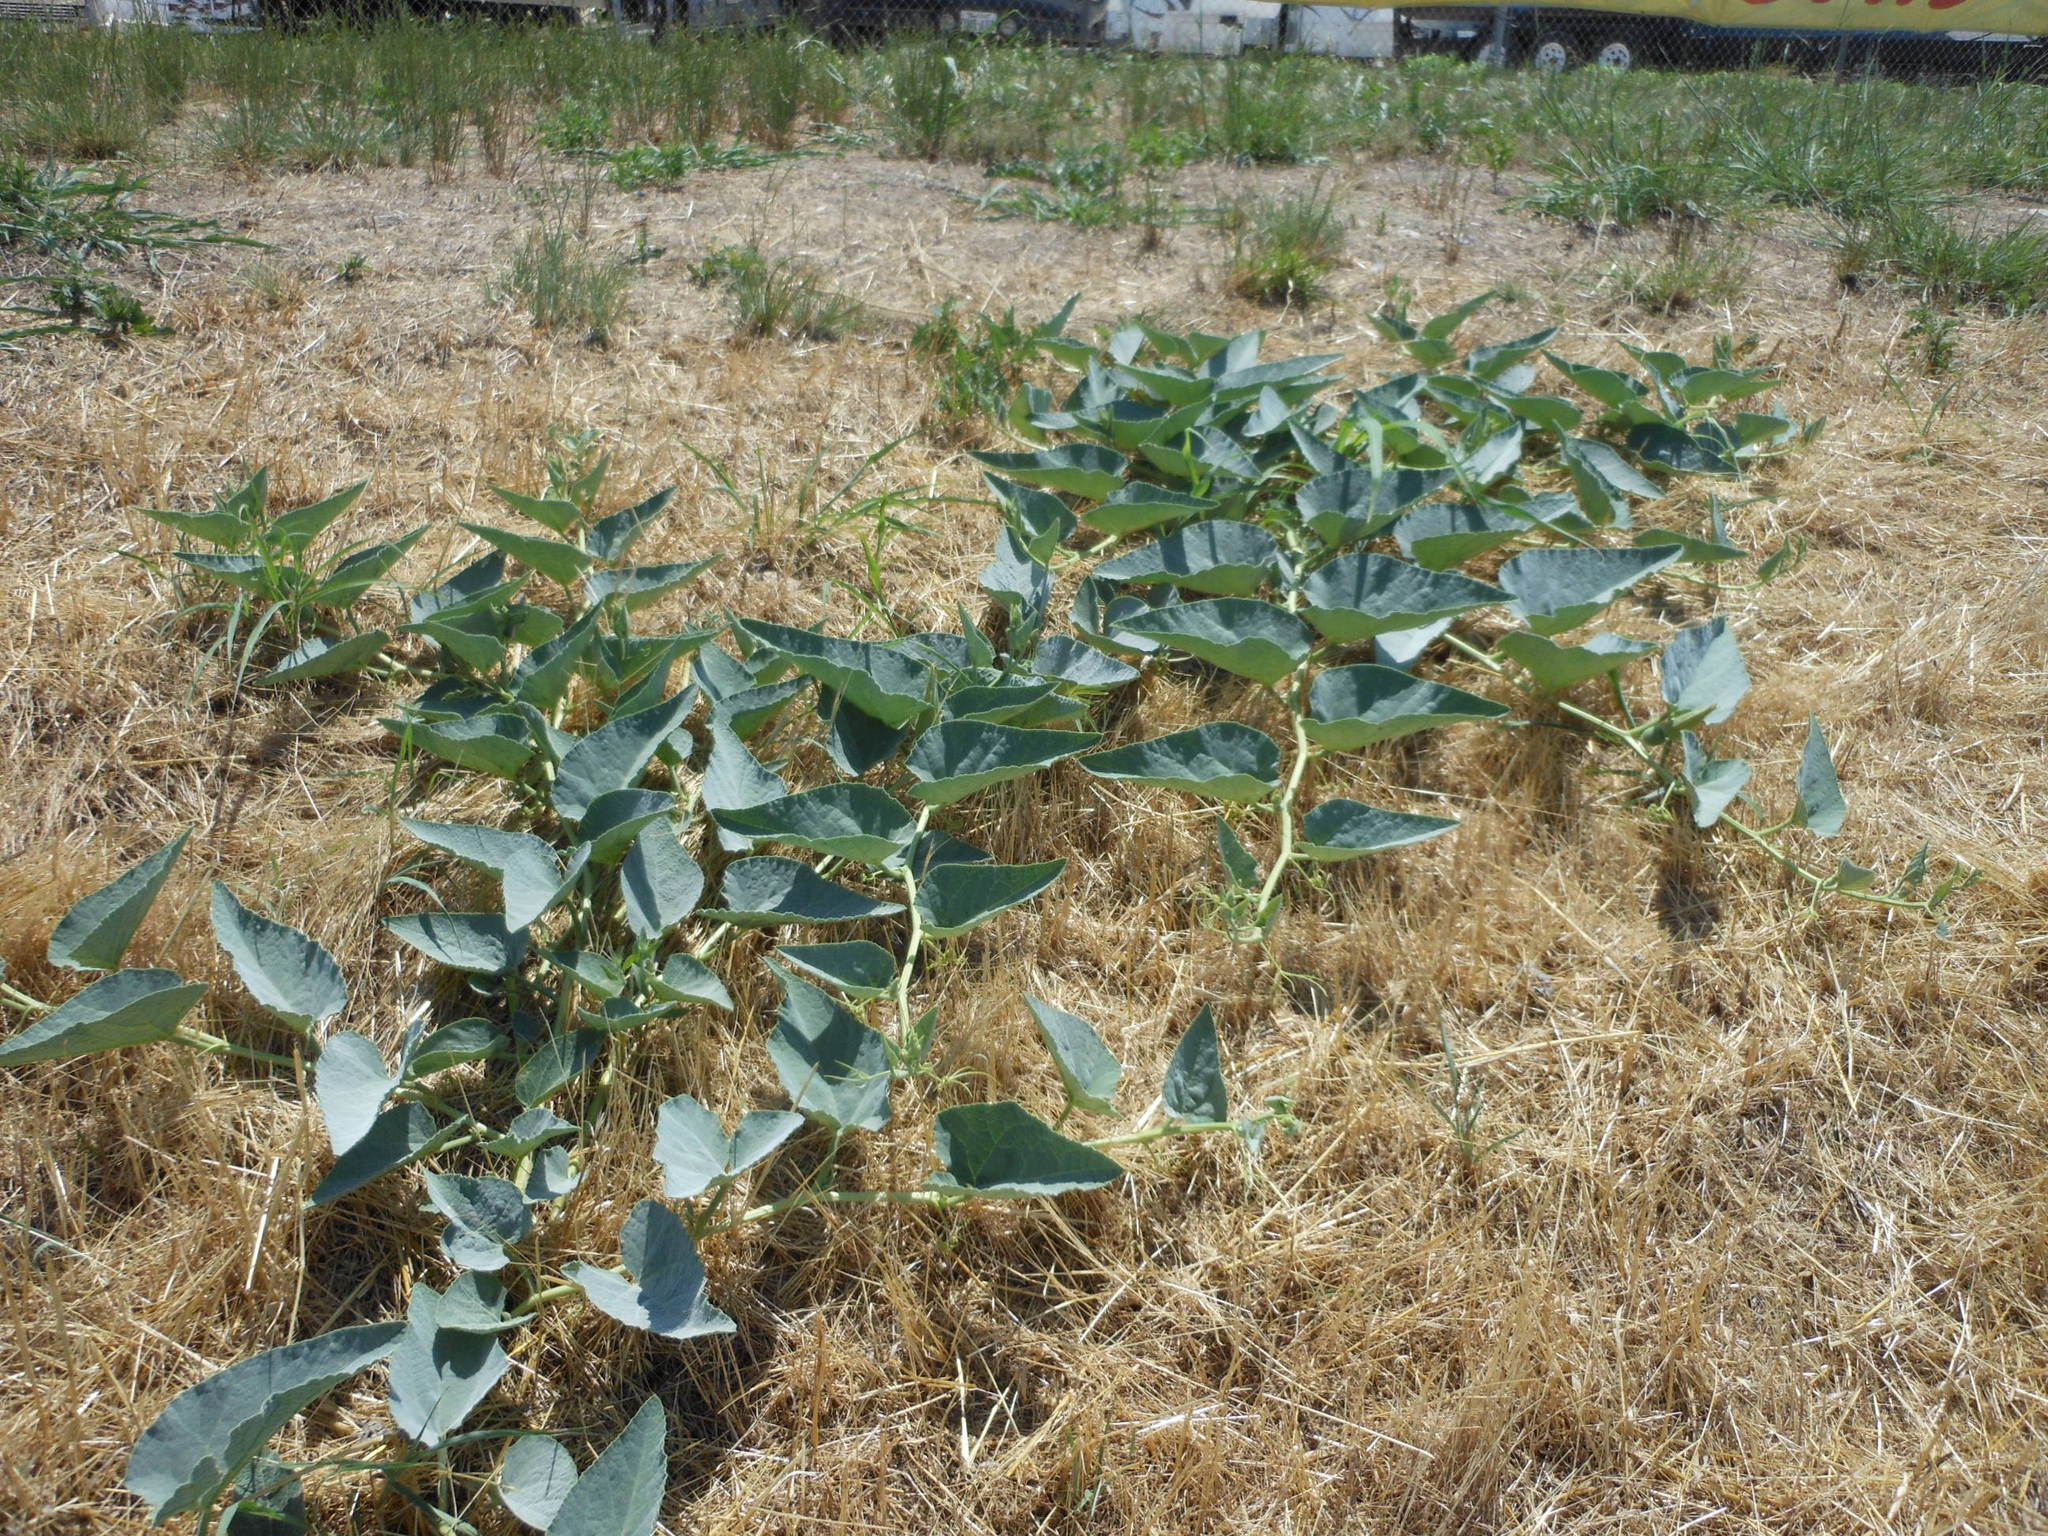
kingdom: Plantae
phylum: Tracheophyta
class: Magnoliopsida
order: Cucurbitales
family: Cucurbitaceae
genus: Cucurbita
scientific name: Cucurbita foetidissima
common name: Buffalo gourd
